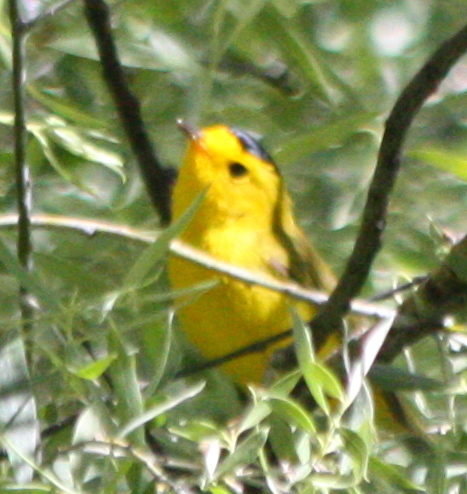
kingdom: Animalia
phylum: Chordata
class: Aves
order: Passeriformes
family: Parulidae
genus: Cardellina
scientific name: Cardellina pusilla
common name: Wilson's warbler
